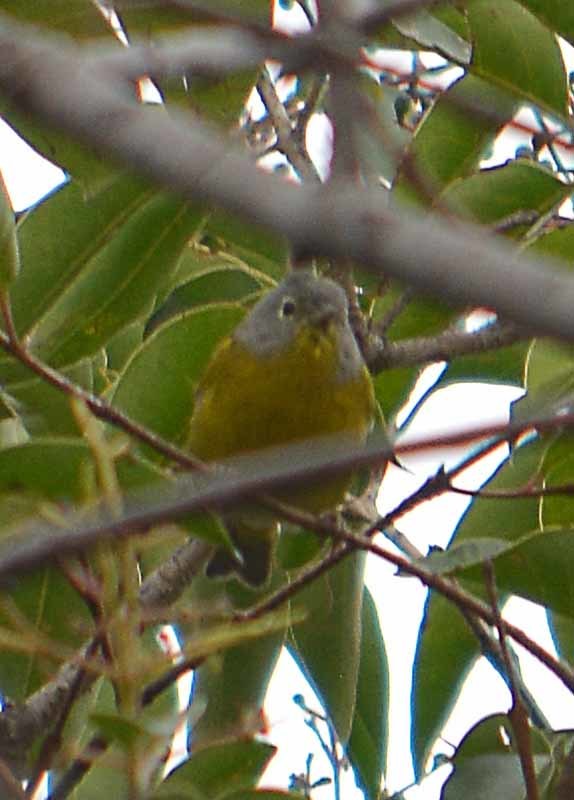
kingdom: Animalia
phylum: Chordata
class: Aves
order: Passeriformes
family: Parulidae
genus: Leiothlypis
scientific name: Leiothlypis ruficapilla
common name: Nashville warbler
